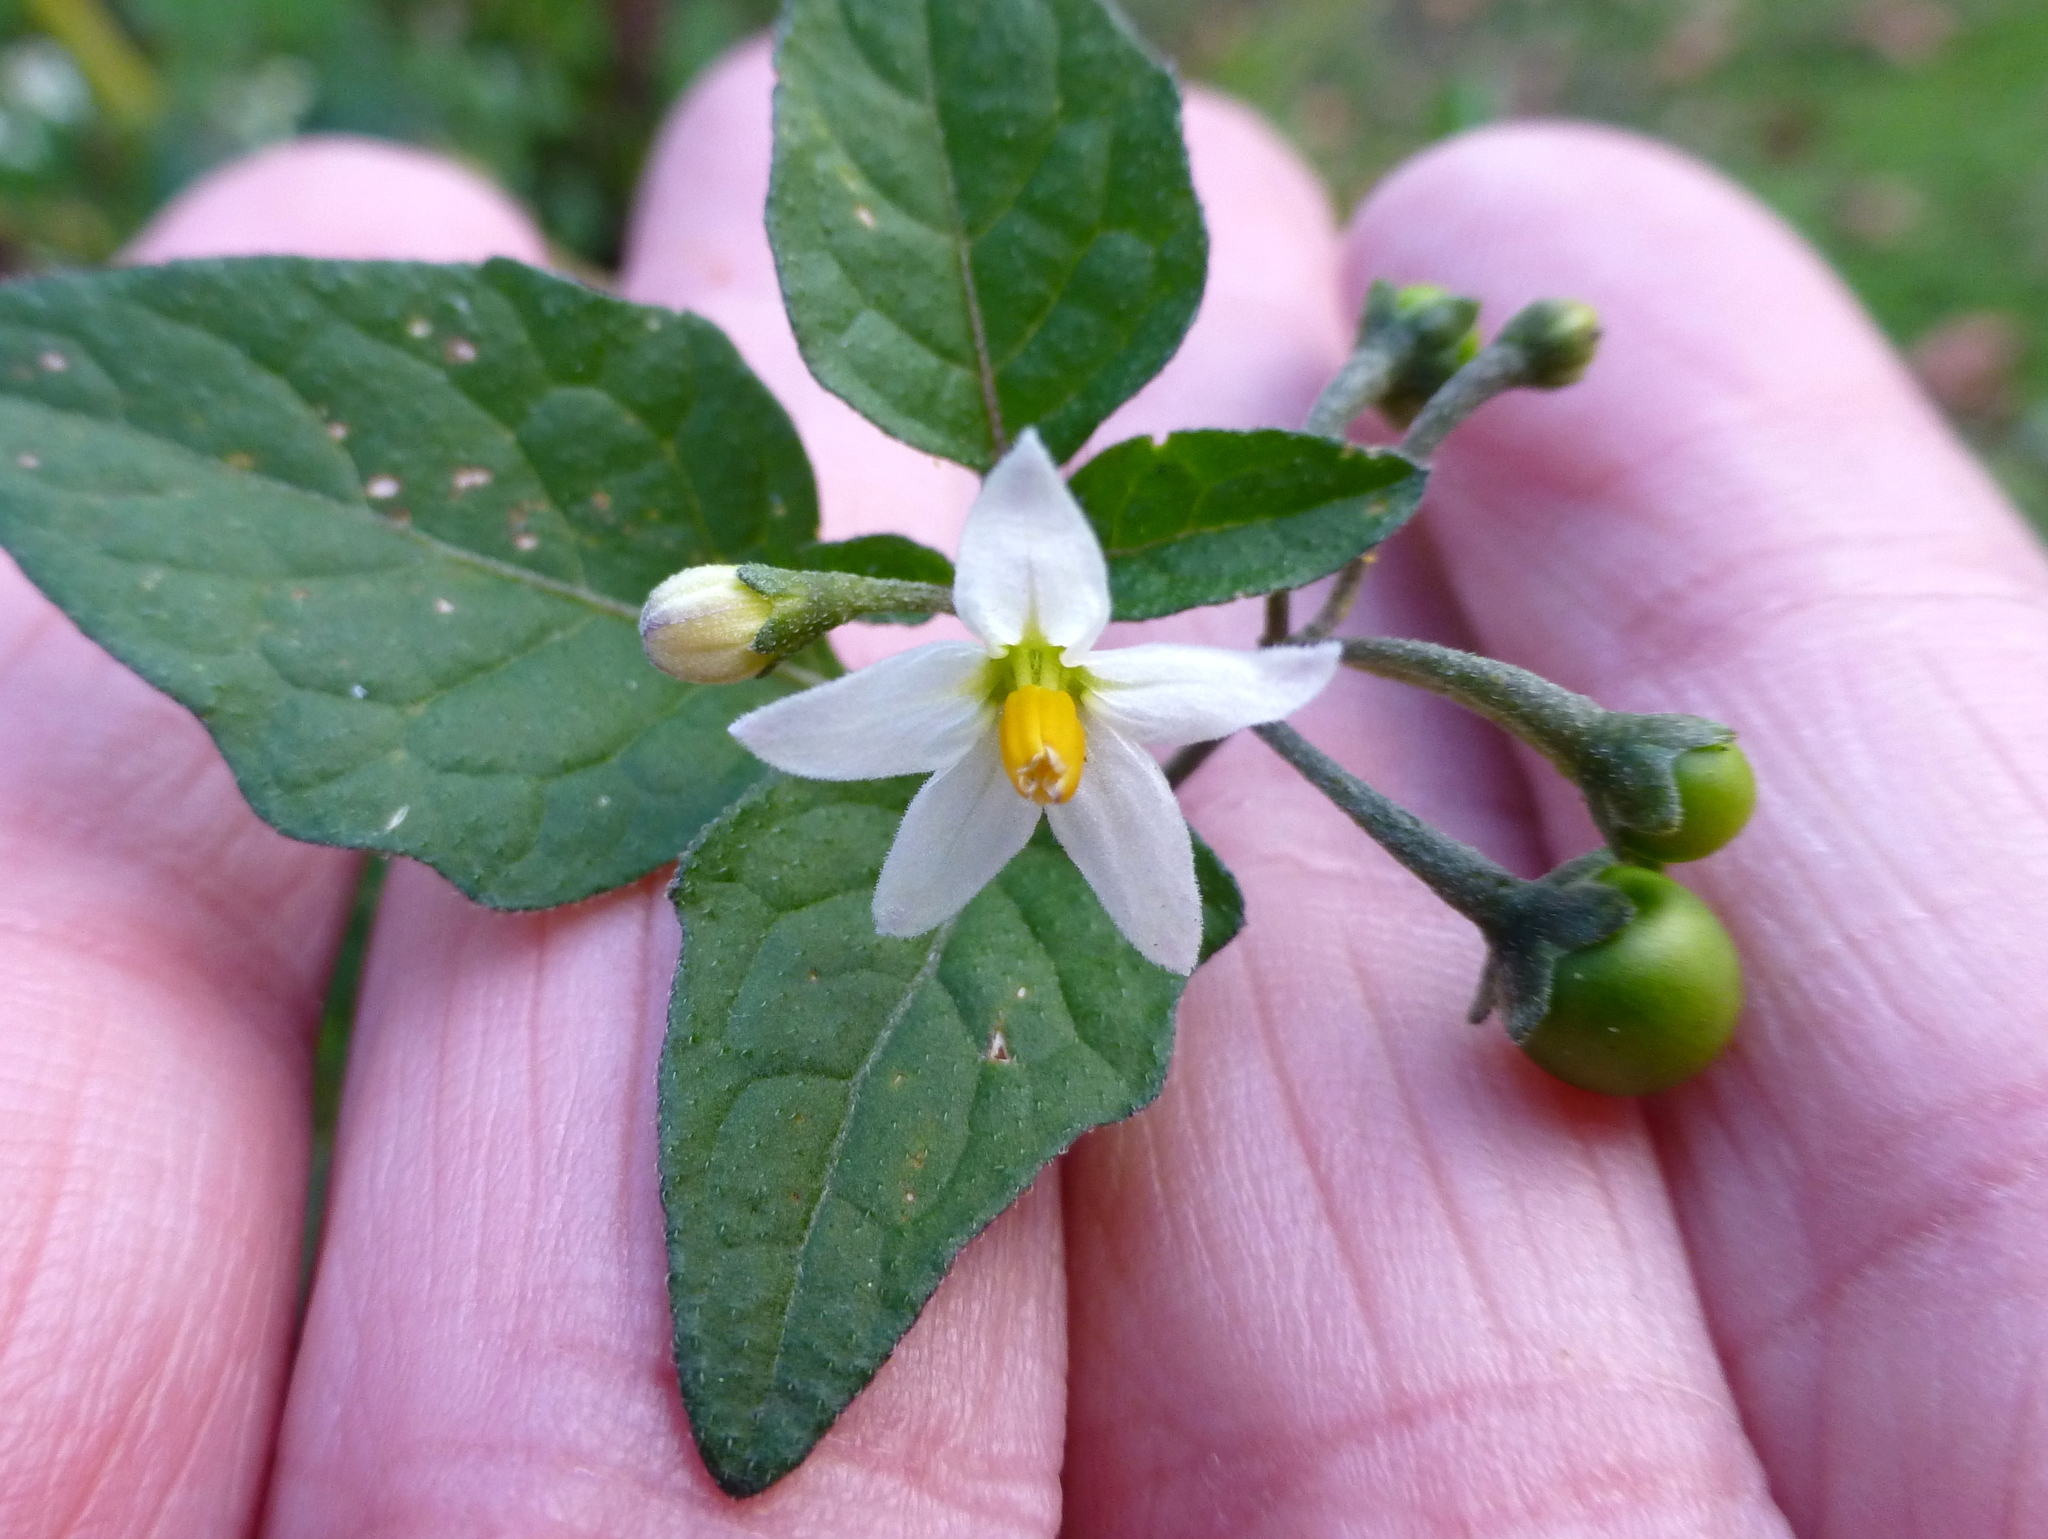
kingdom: Plantae
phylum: Tracheophyta
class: Magnoliopsida
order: Solanales
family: Solanaceae
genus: Solanum
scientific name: Solanum nigrum
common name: Black nightshade
